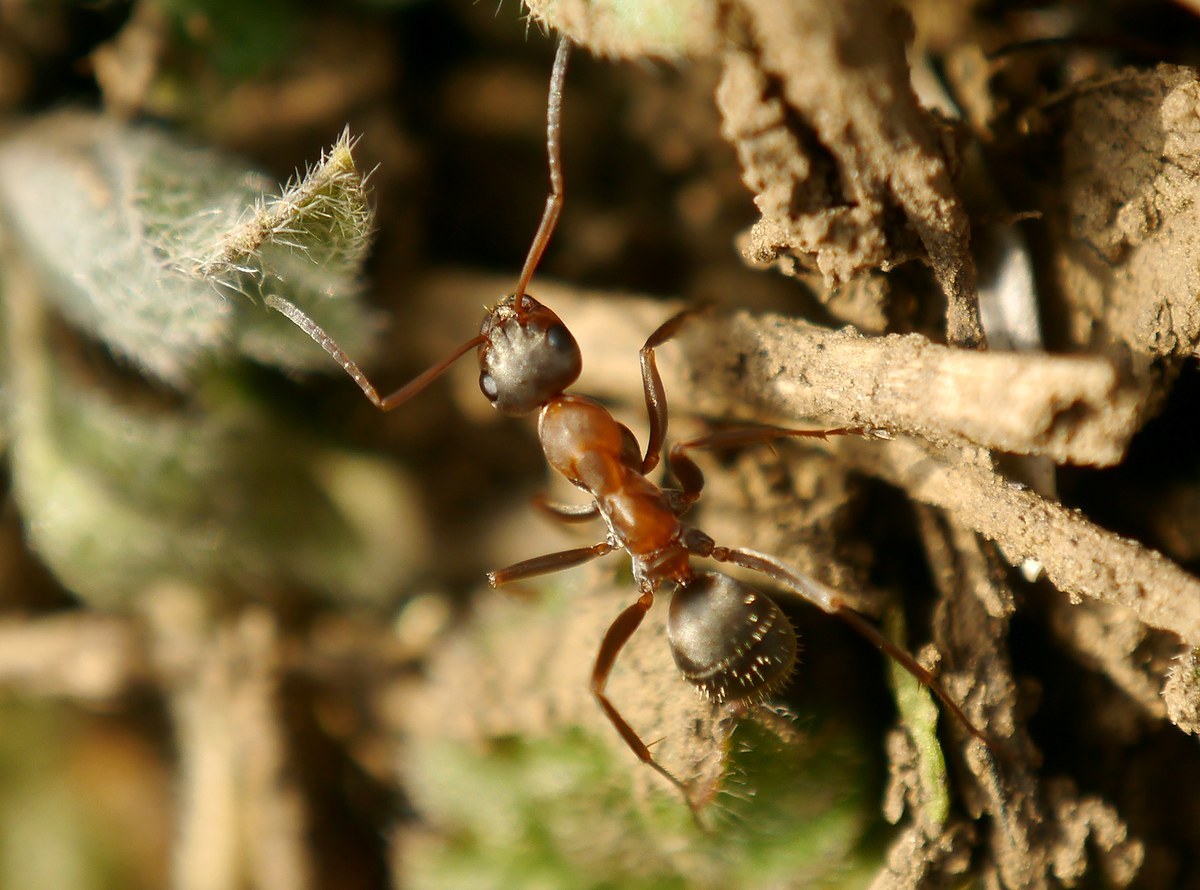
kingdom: Animalia
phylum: Arthropoda
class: Insecta
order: Hymenoptera
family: Formicidae
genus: Formica
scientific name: Formica rufibarbis
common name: Red barbed ant
